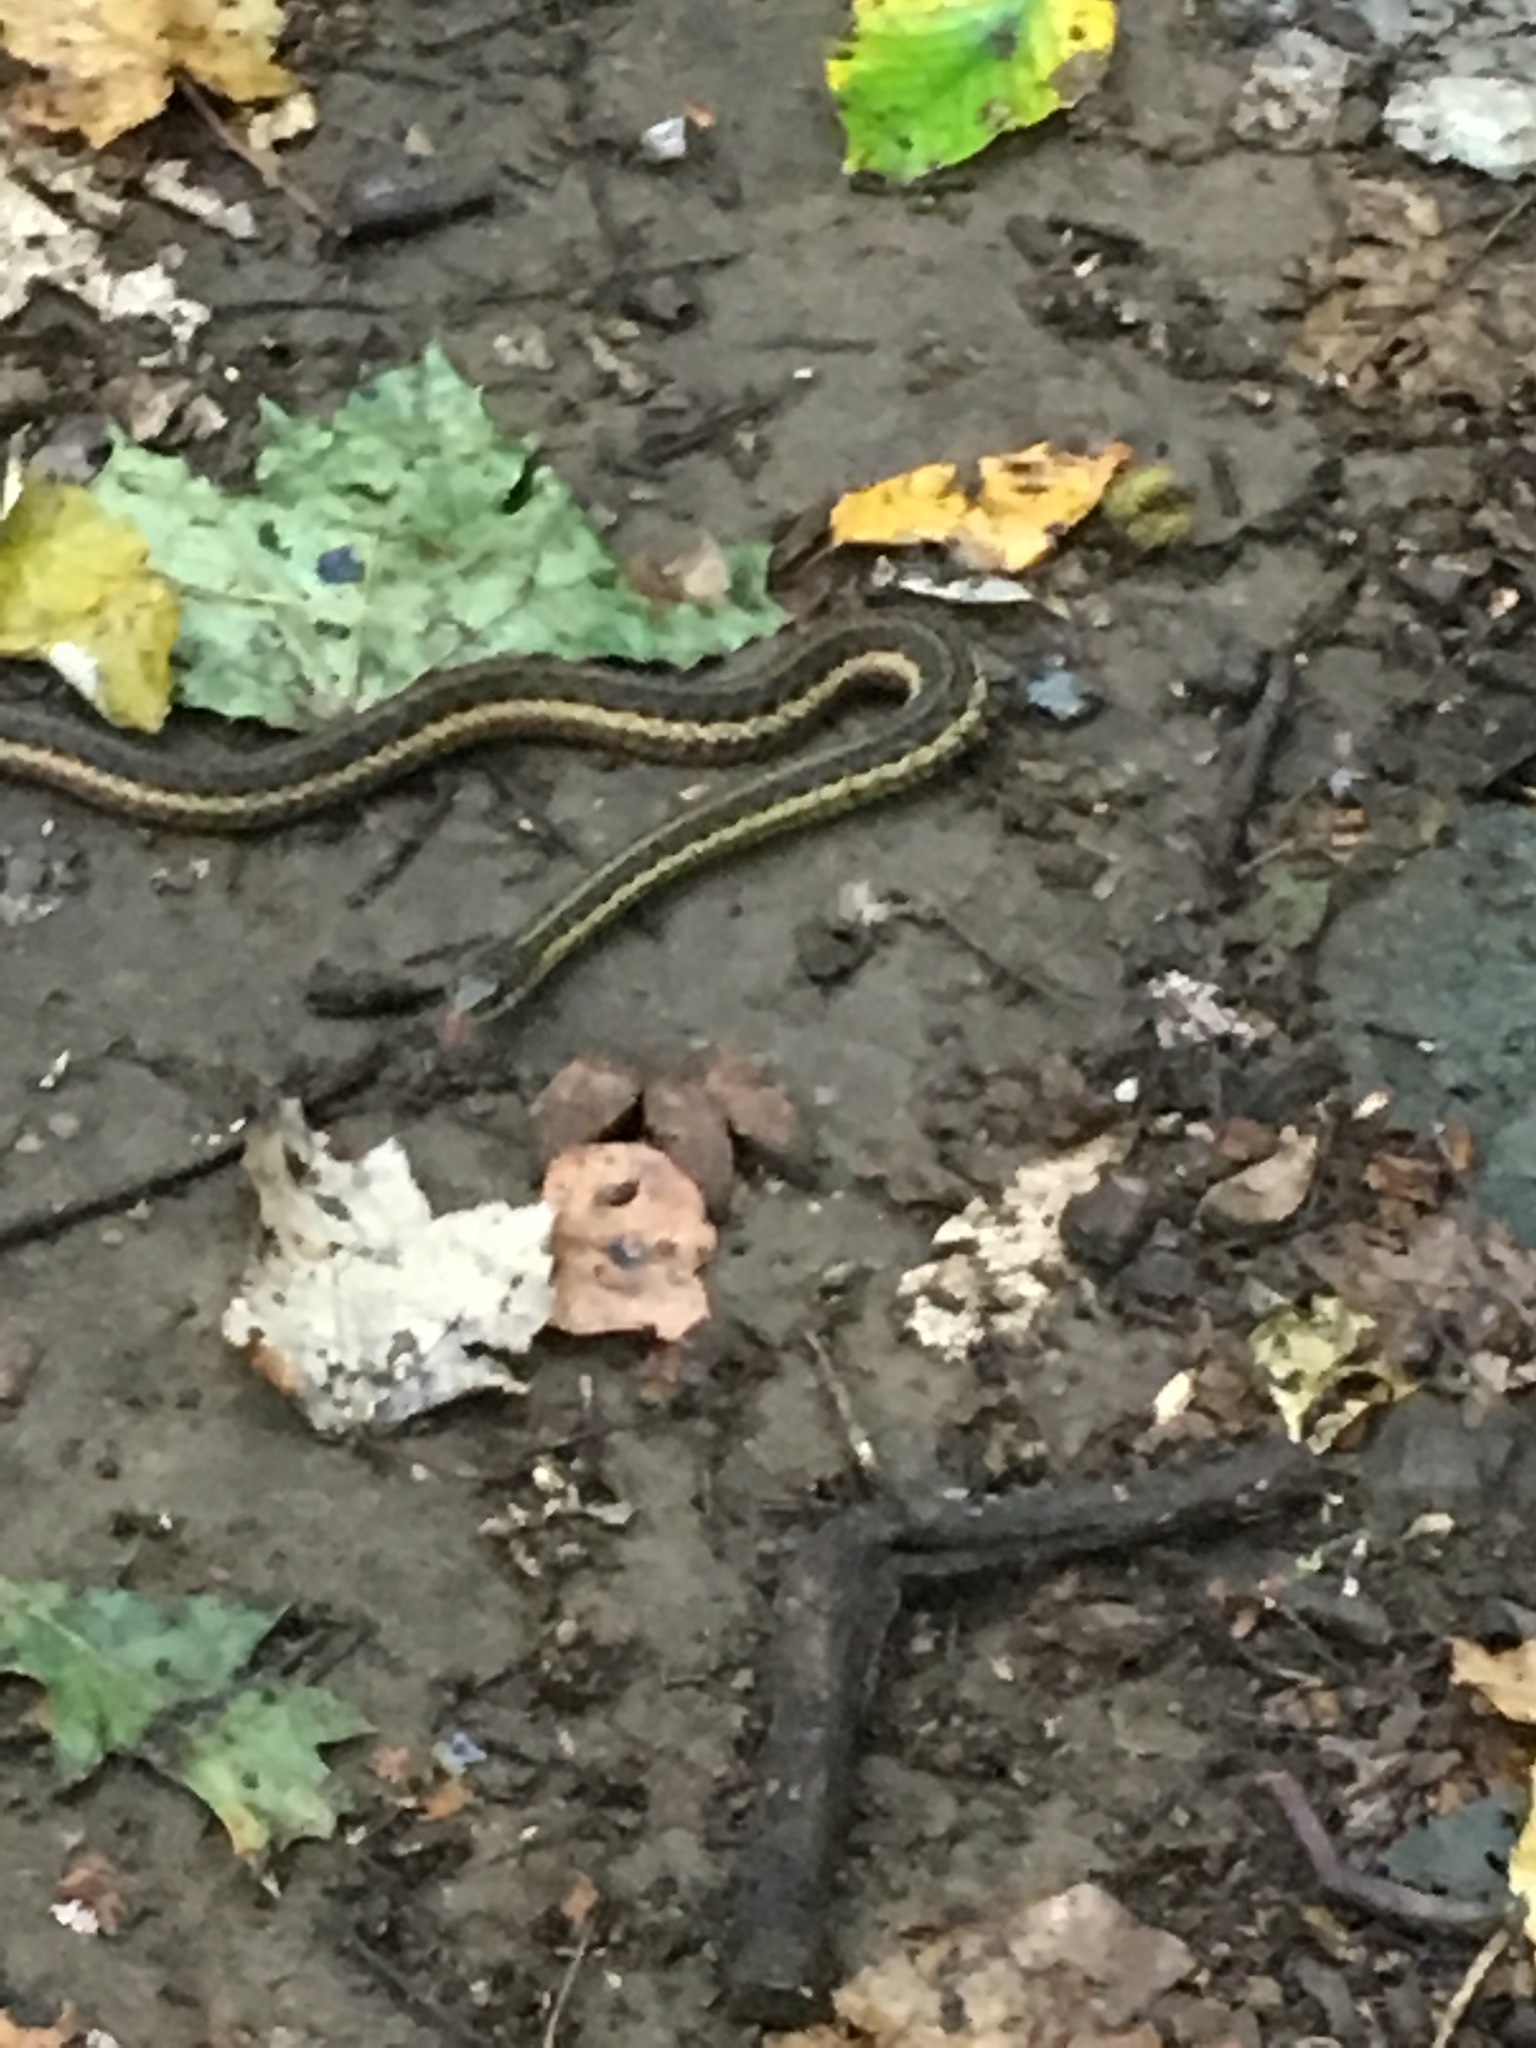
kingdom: Animalia
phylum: Chordata
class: Squamata
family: Colubridae
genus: Thamnophis
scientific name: Thamnophis sirtalis
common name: Common garter snake
